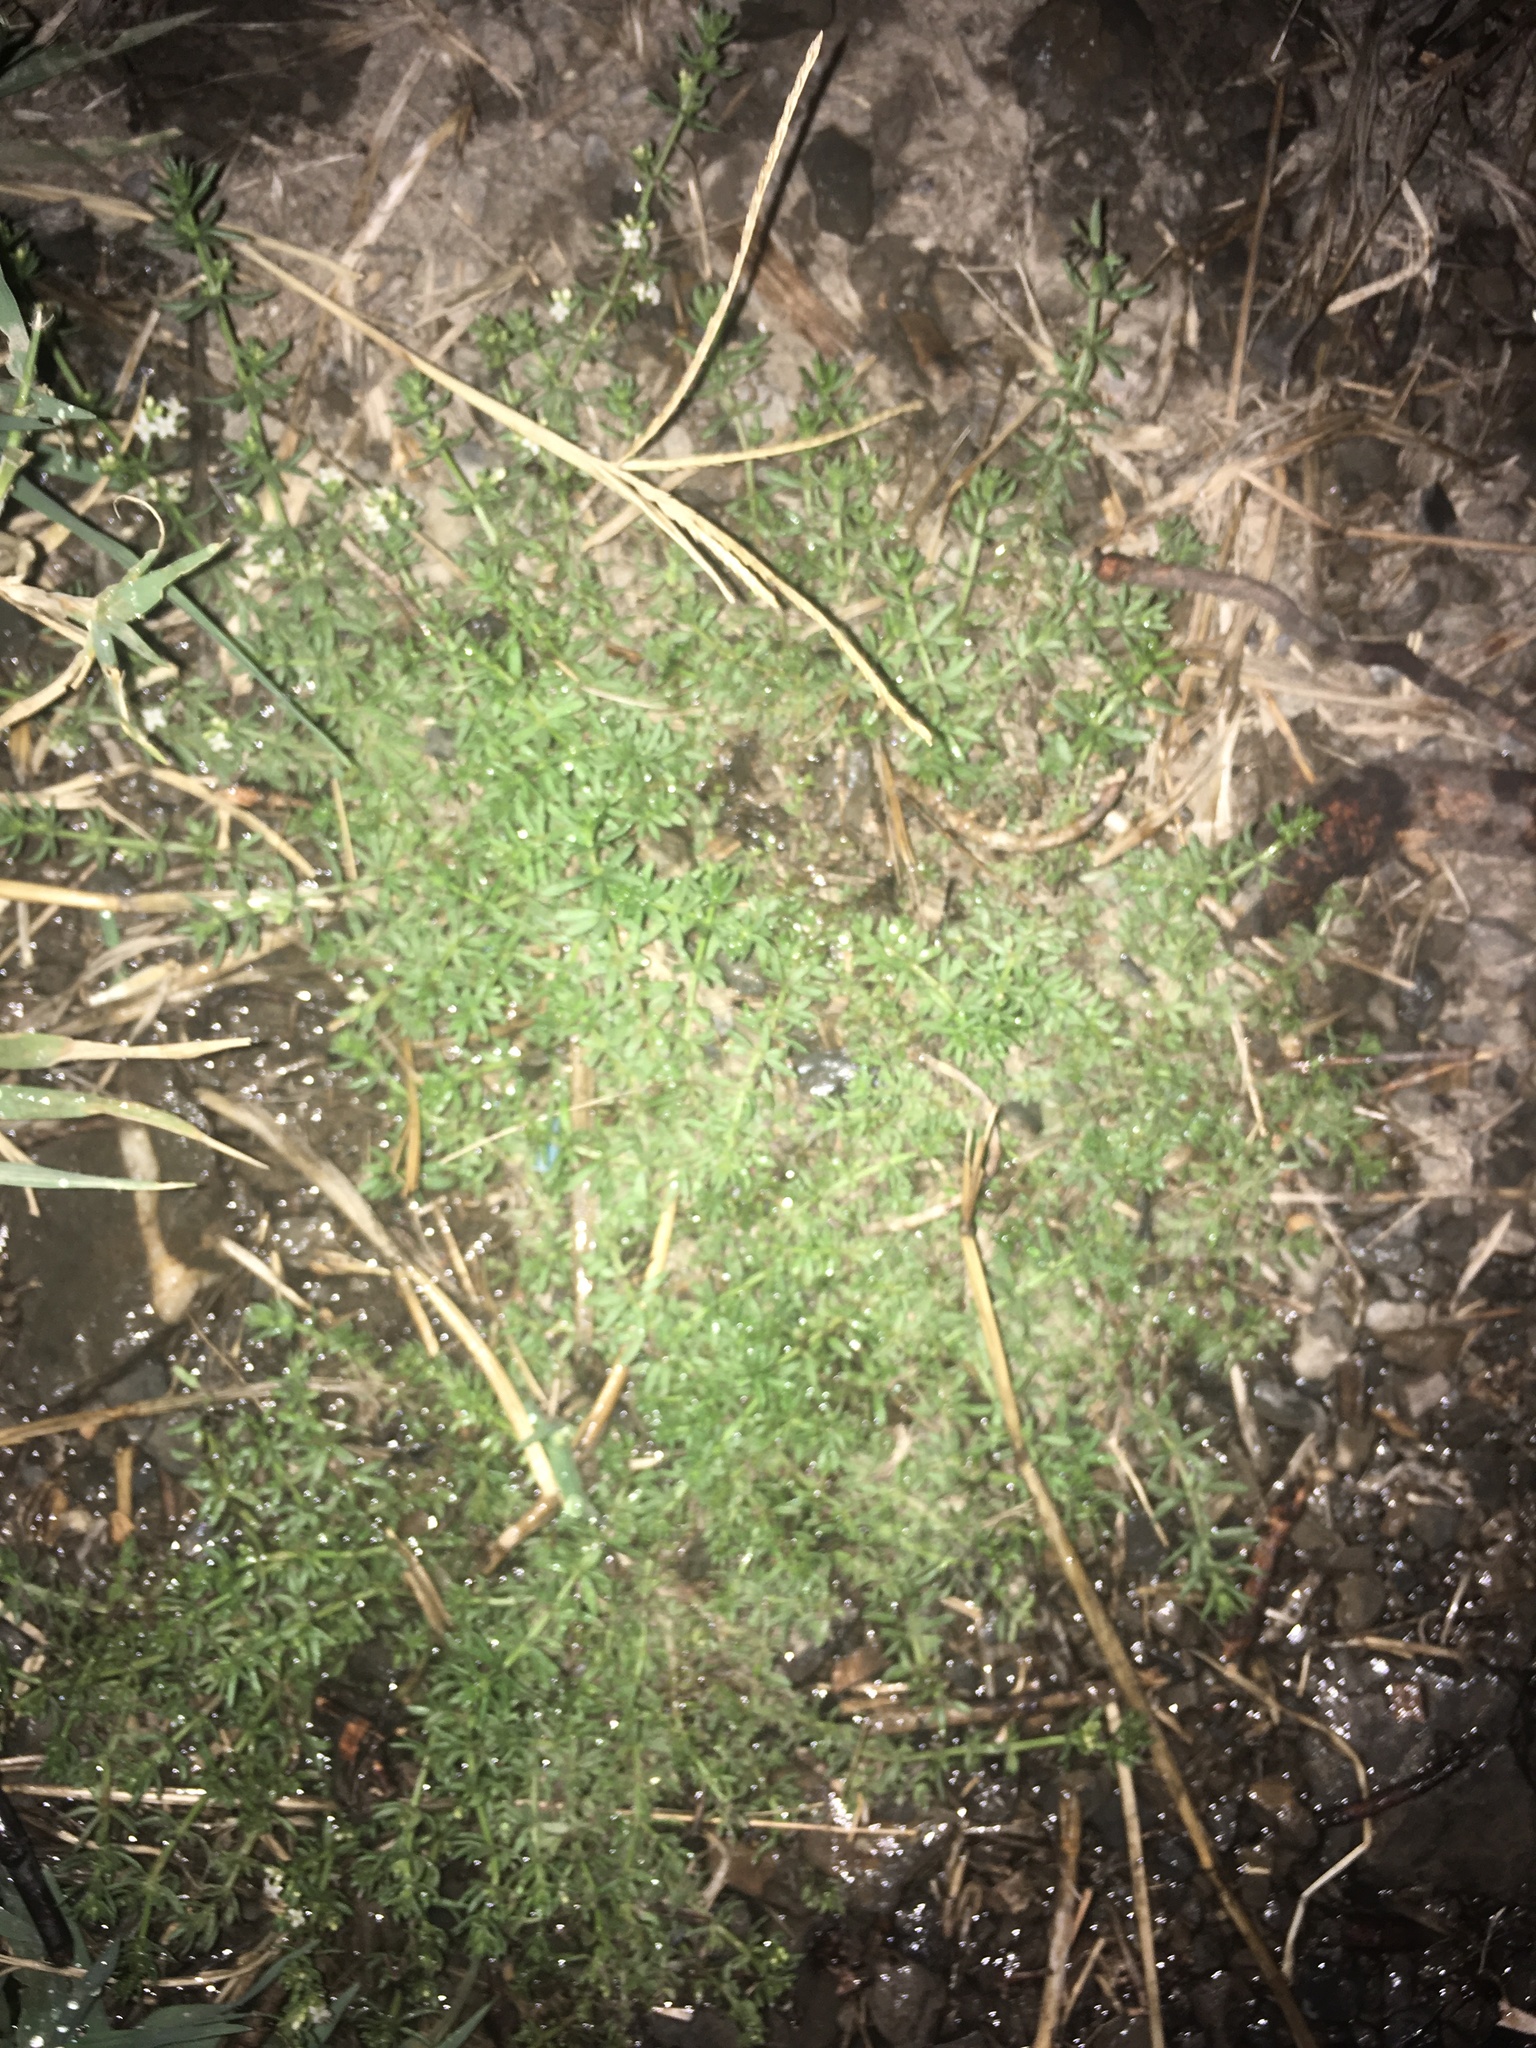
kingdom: Plantae
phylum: Tracheophyta
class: Magnoliopsida
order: Gentianales
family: Rubiaceae
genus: Galium
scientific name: Galium humifusum
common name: Spreading bedstraw
